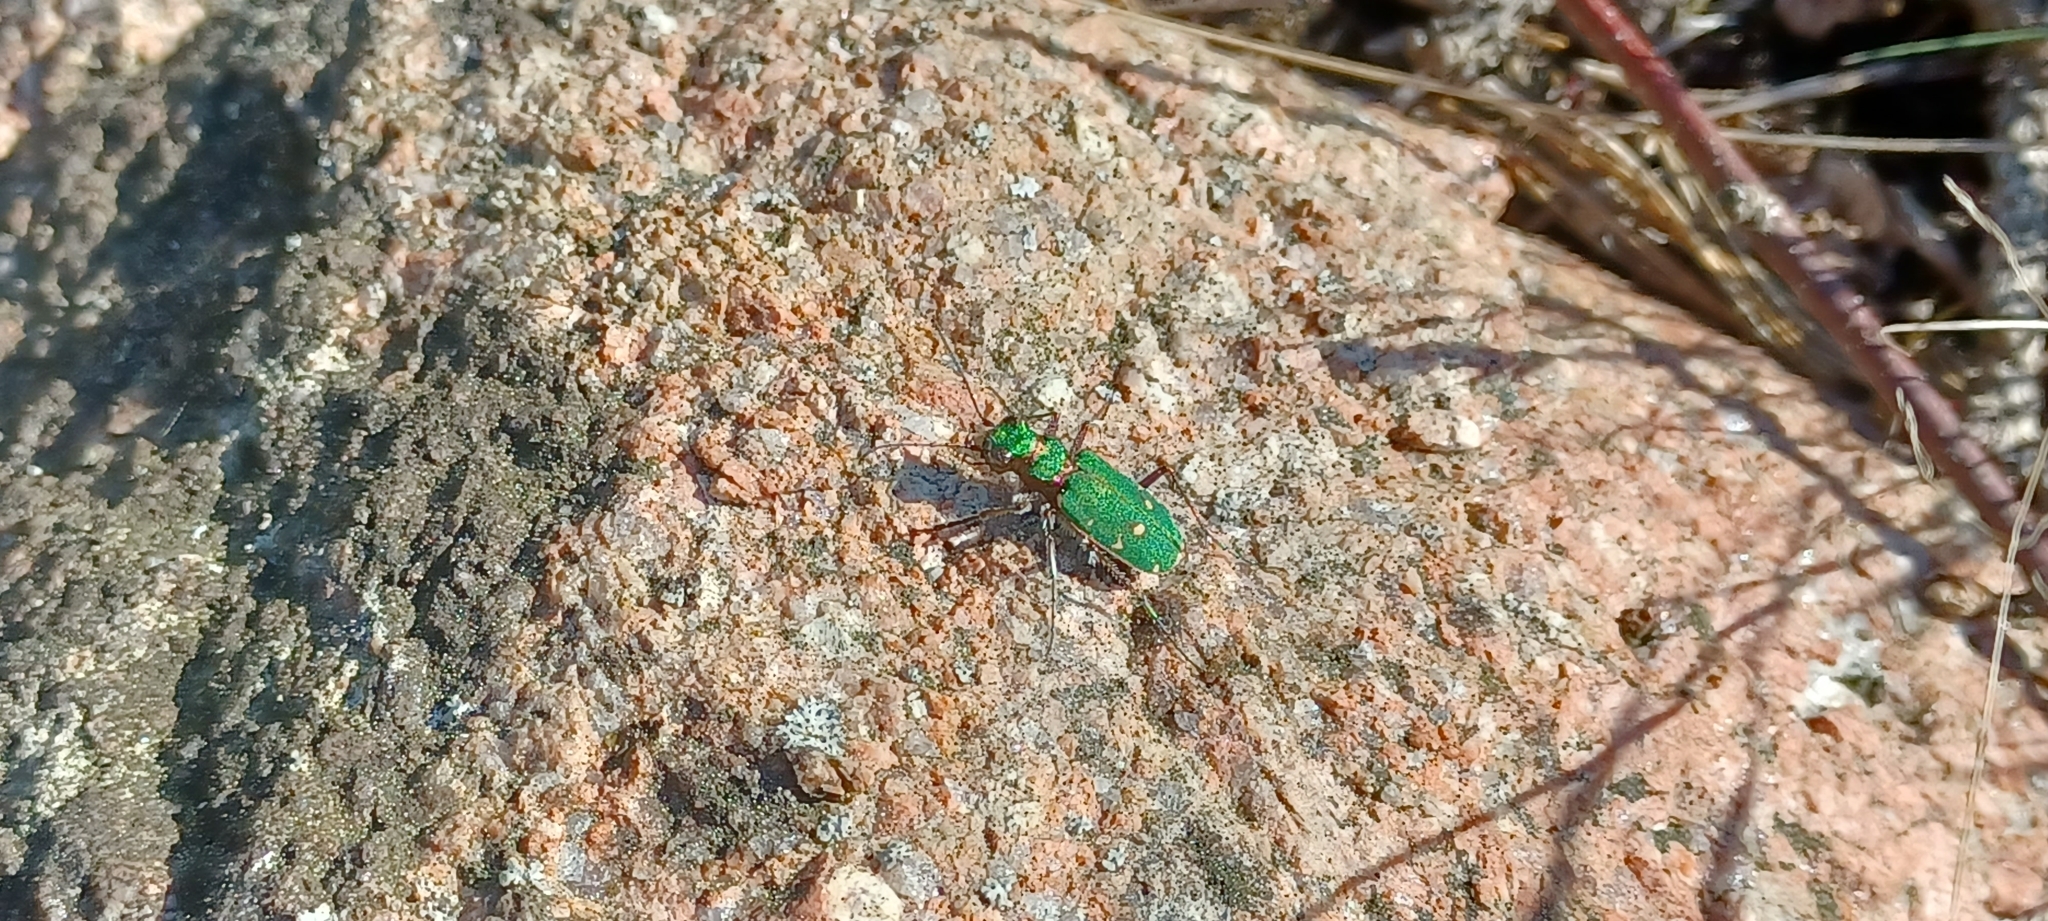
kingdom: Animalia
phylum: Arthropoda
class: Insecta
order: Coleoptera
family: Carabidae
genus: Cicindela
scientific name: Cicindela campestris
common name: Common tiger beetle
